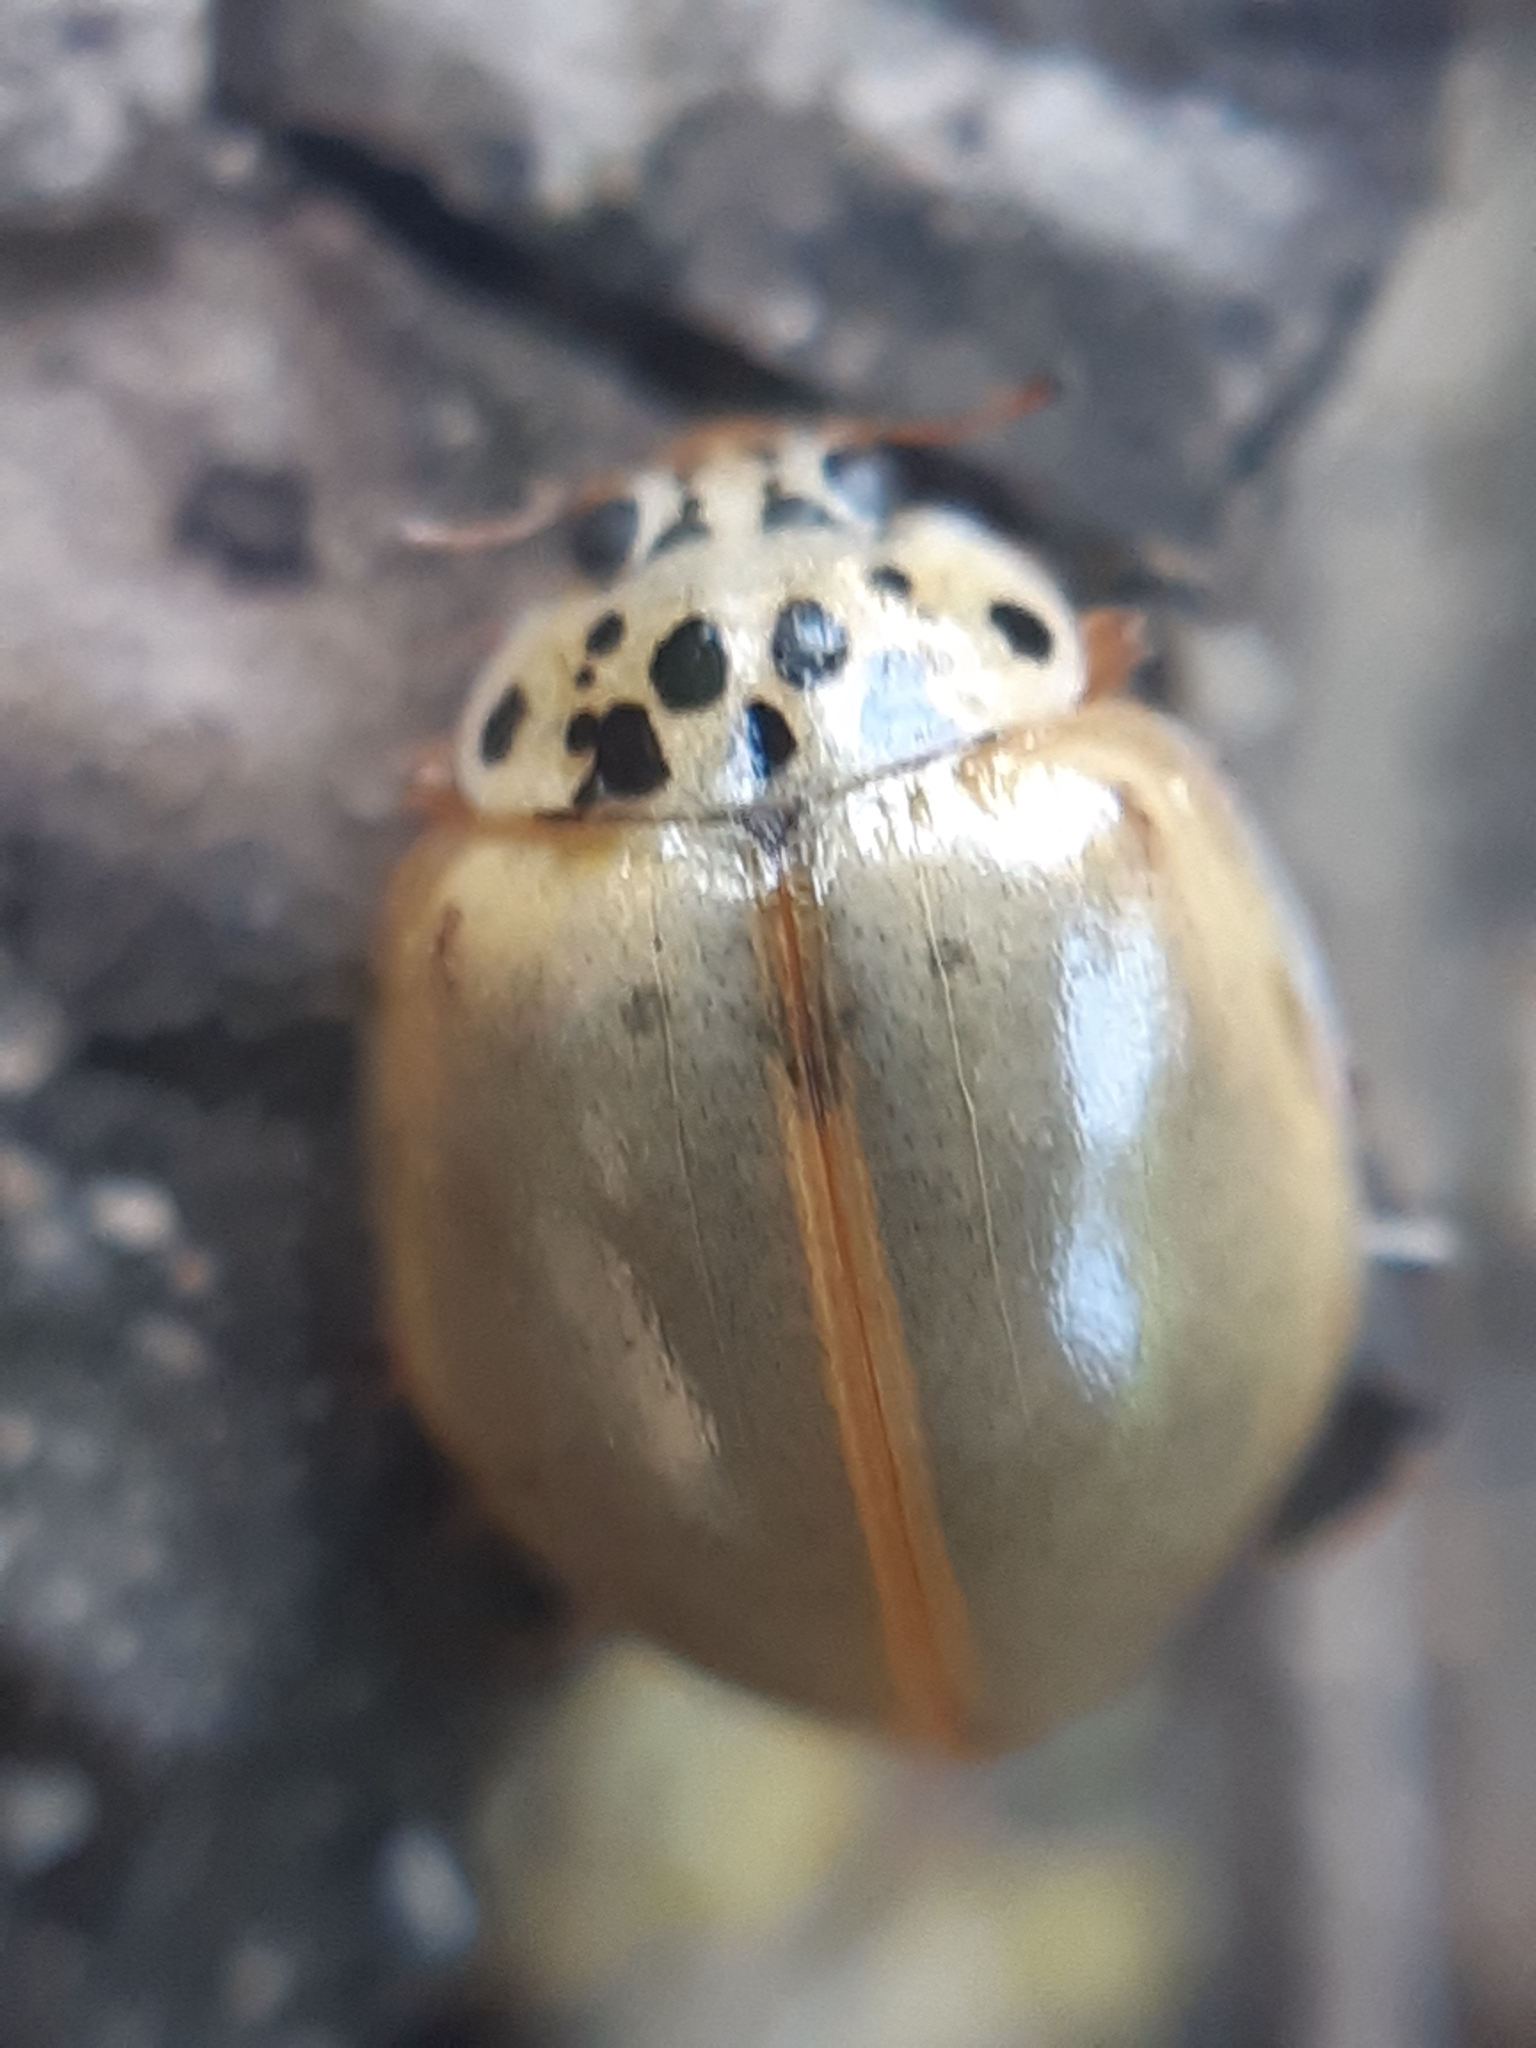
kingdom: Animalia
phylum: Arthropoda
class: Insecta
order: Coleoptera
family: Coccinellidae
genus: Harmonia
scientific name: Harmonia quadripunctata
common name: Cream-streaked ladybird
